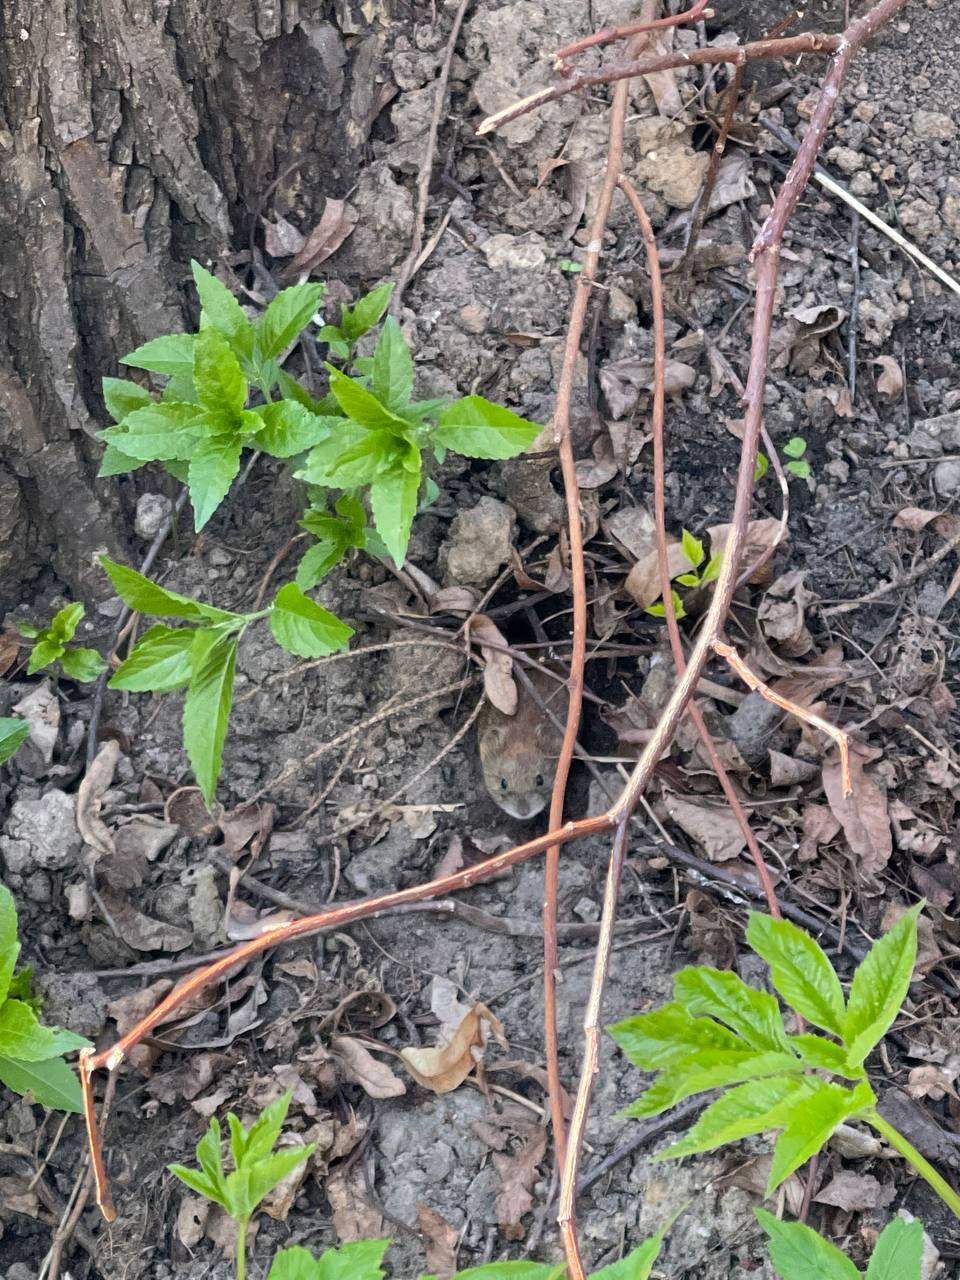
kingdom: Plantae
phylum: Tracheophyta
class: Magnoliopsida
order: Malpighiales
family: Euphorbiaceae
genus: Mercurialis
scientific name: Mercurialis perennis
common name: Dog mercury
